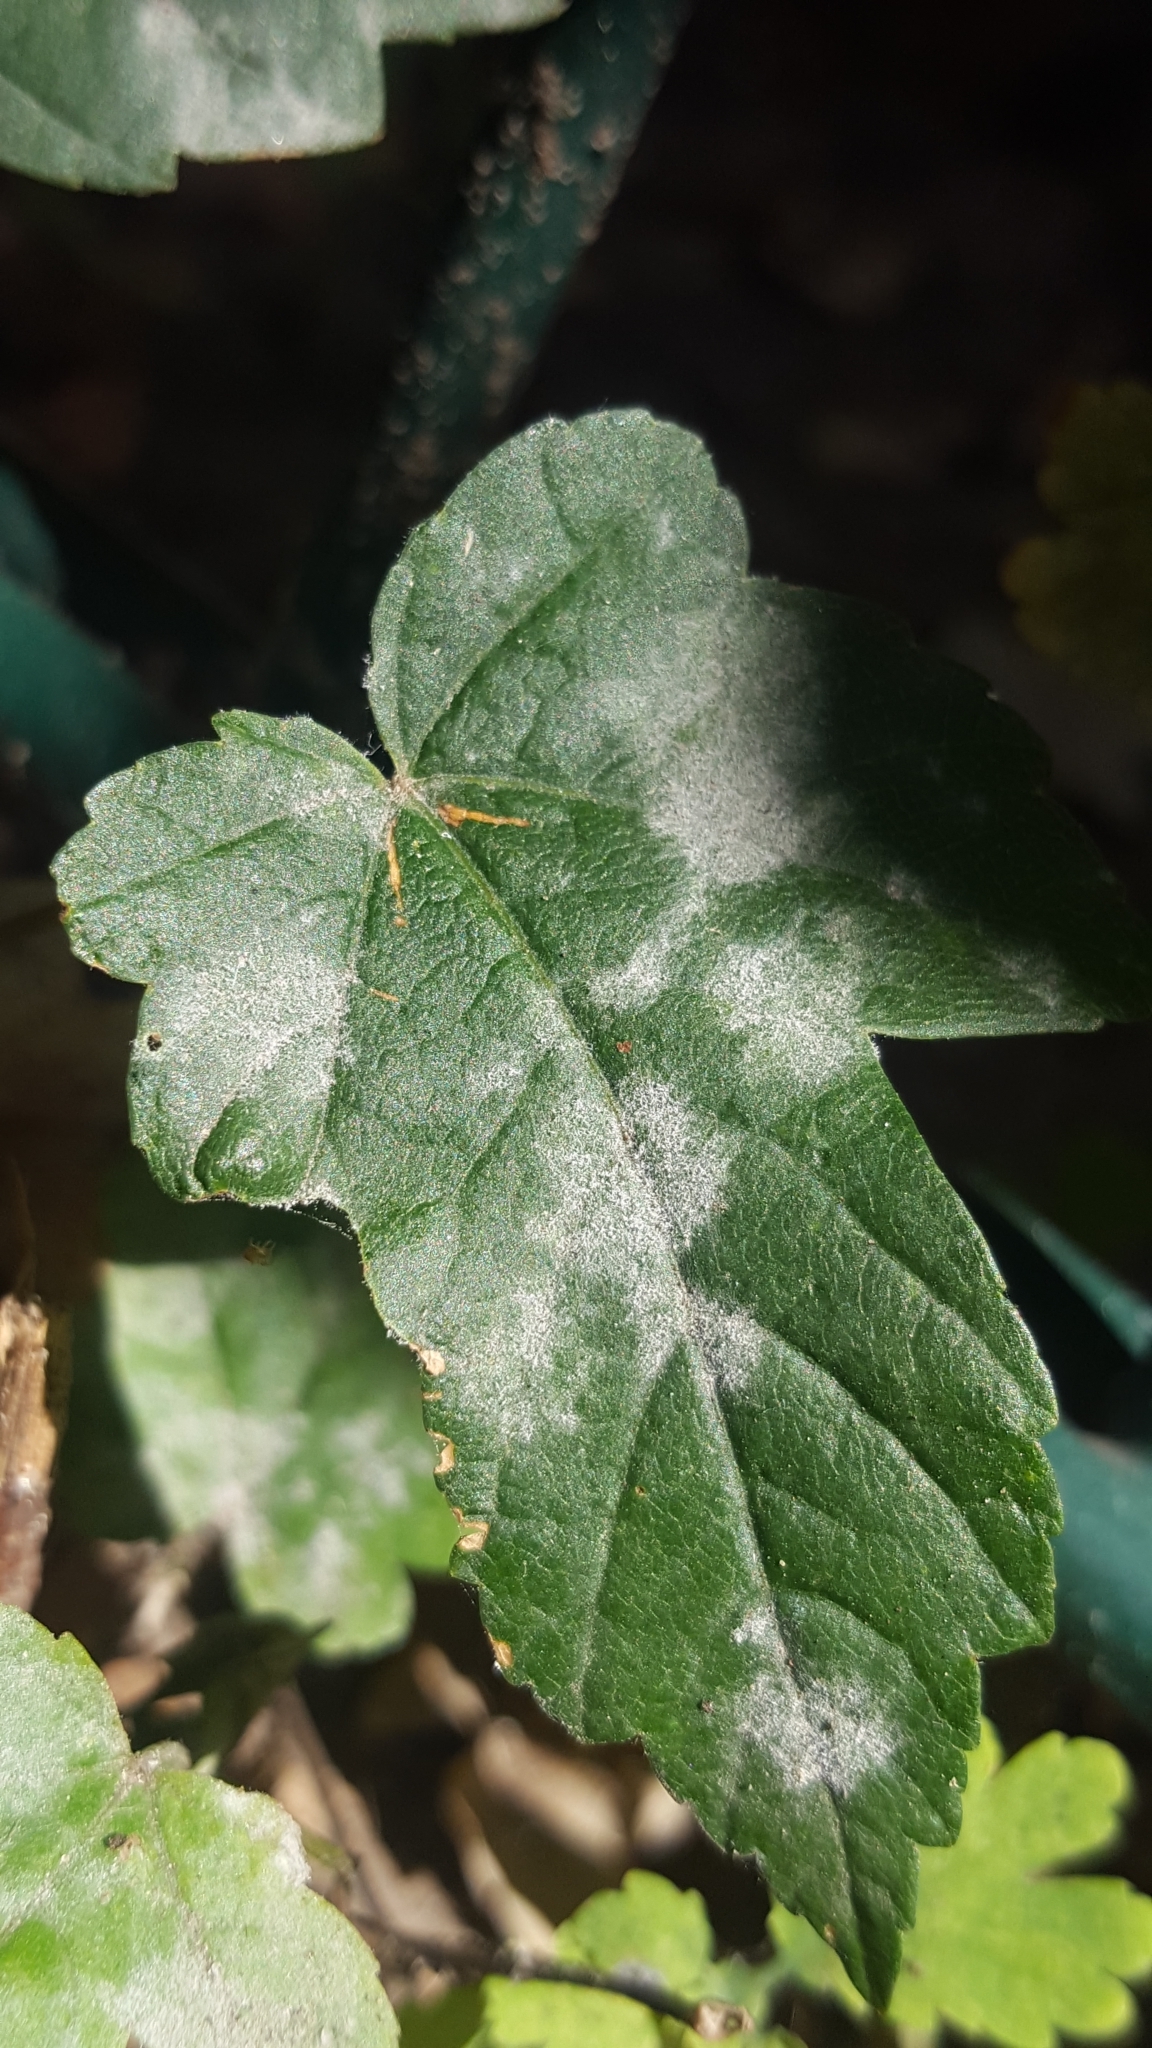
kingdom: Fungi
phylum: Ascomycota
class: Leotiomycetes
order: Helotiales
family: Erysiphaceae
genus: Sawadaea
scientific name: Sawadaea bicornis
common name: Maple mildew
